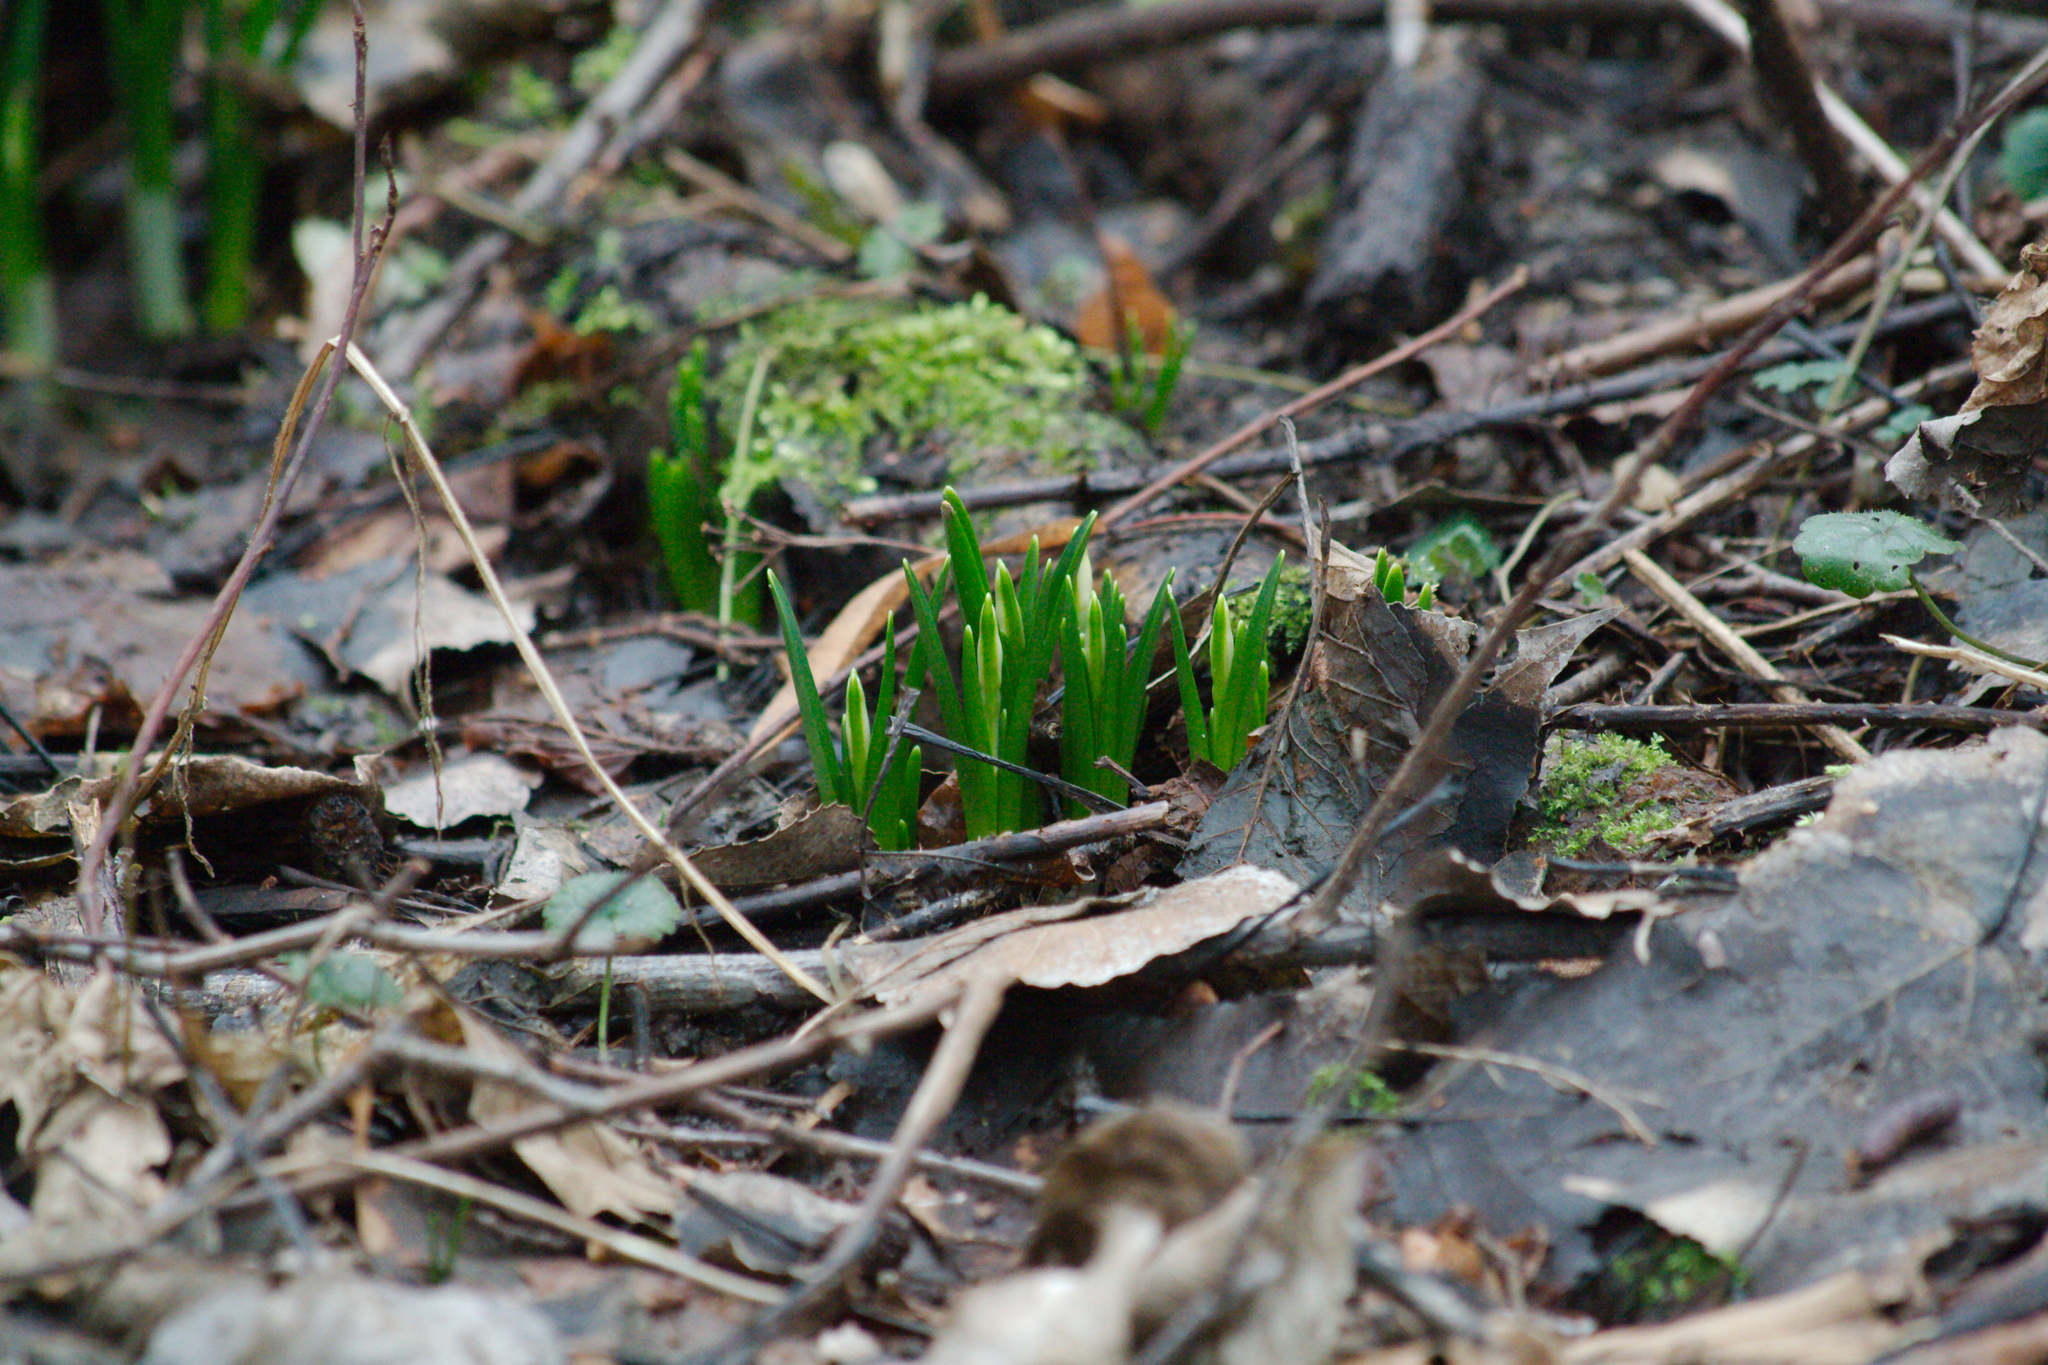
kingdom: Plantae
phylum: Tracheophyta
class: Liliopsida
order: Asparagales
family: Amaryllidaceae
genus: Leucojum
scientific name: Leucojum vernum
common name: Spring snowflake
